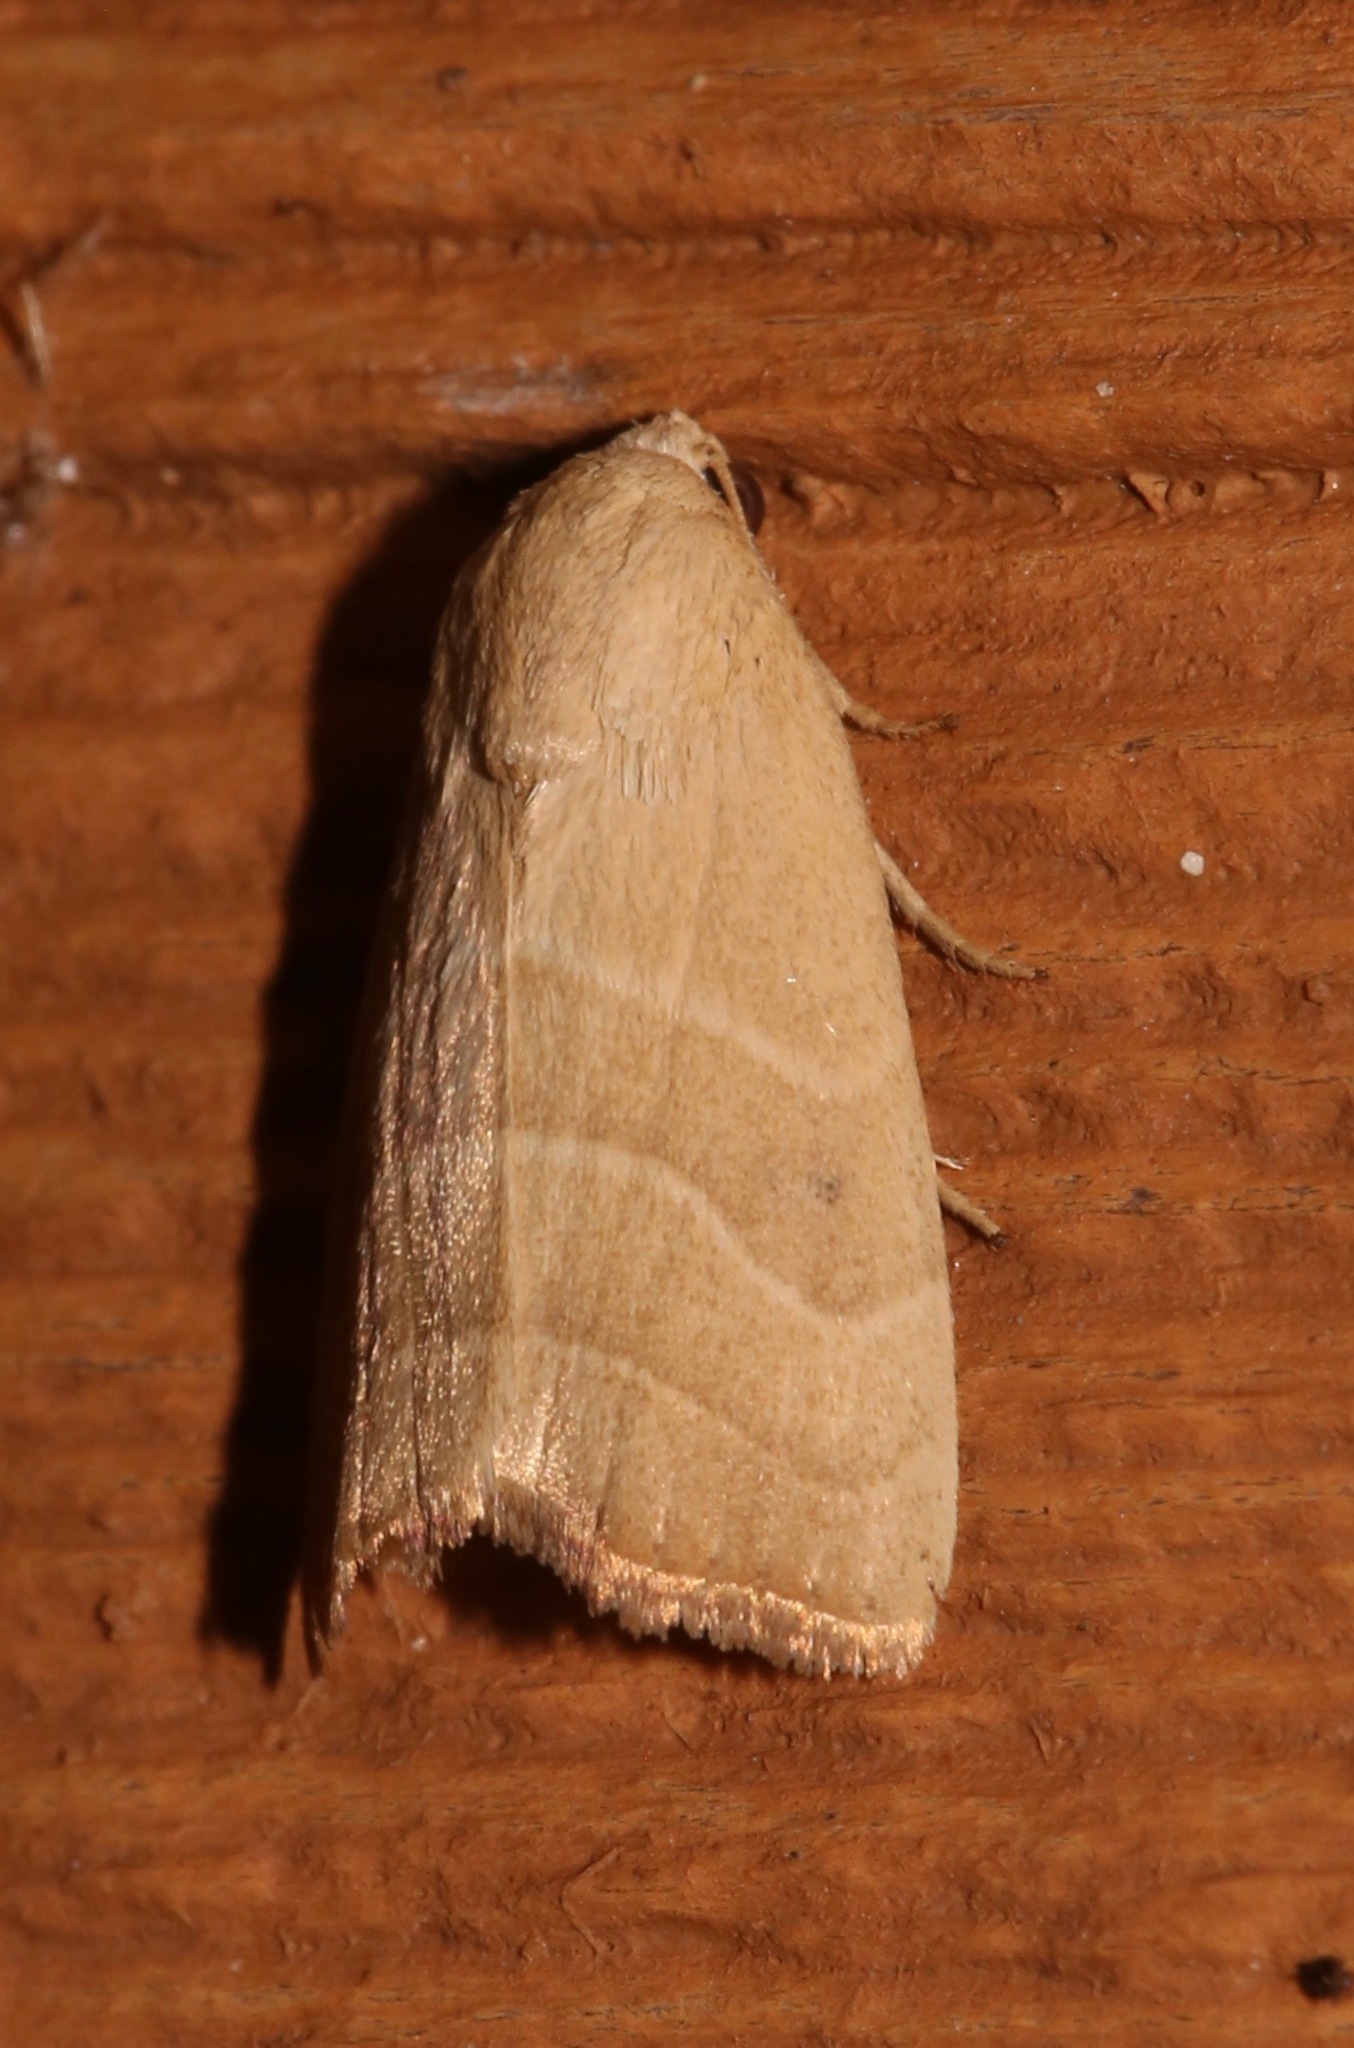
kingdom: Animalia
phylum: Arthropoda
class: Insecta
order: Lepidoptera
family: Noctuidae
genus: Bagisara
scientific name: Bagisara repanda
